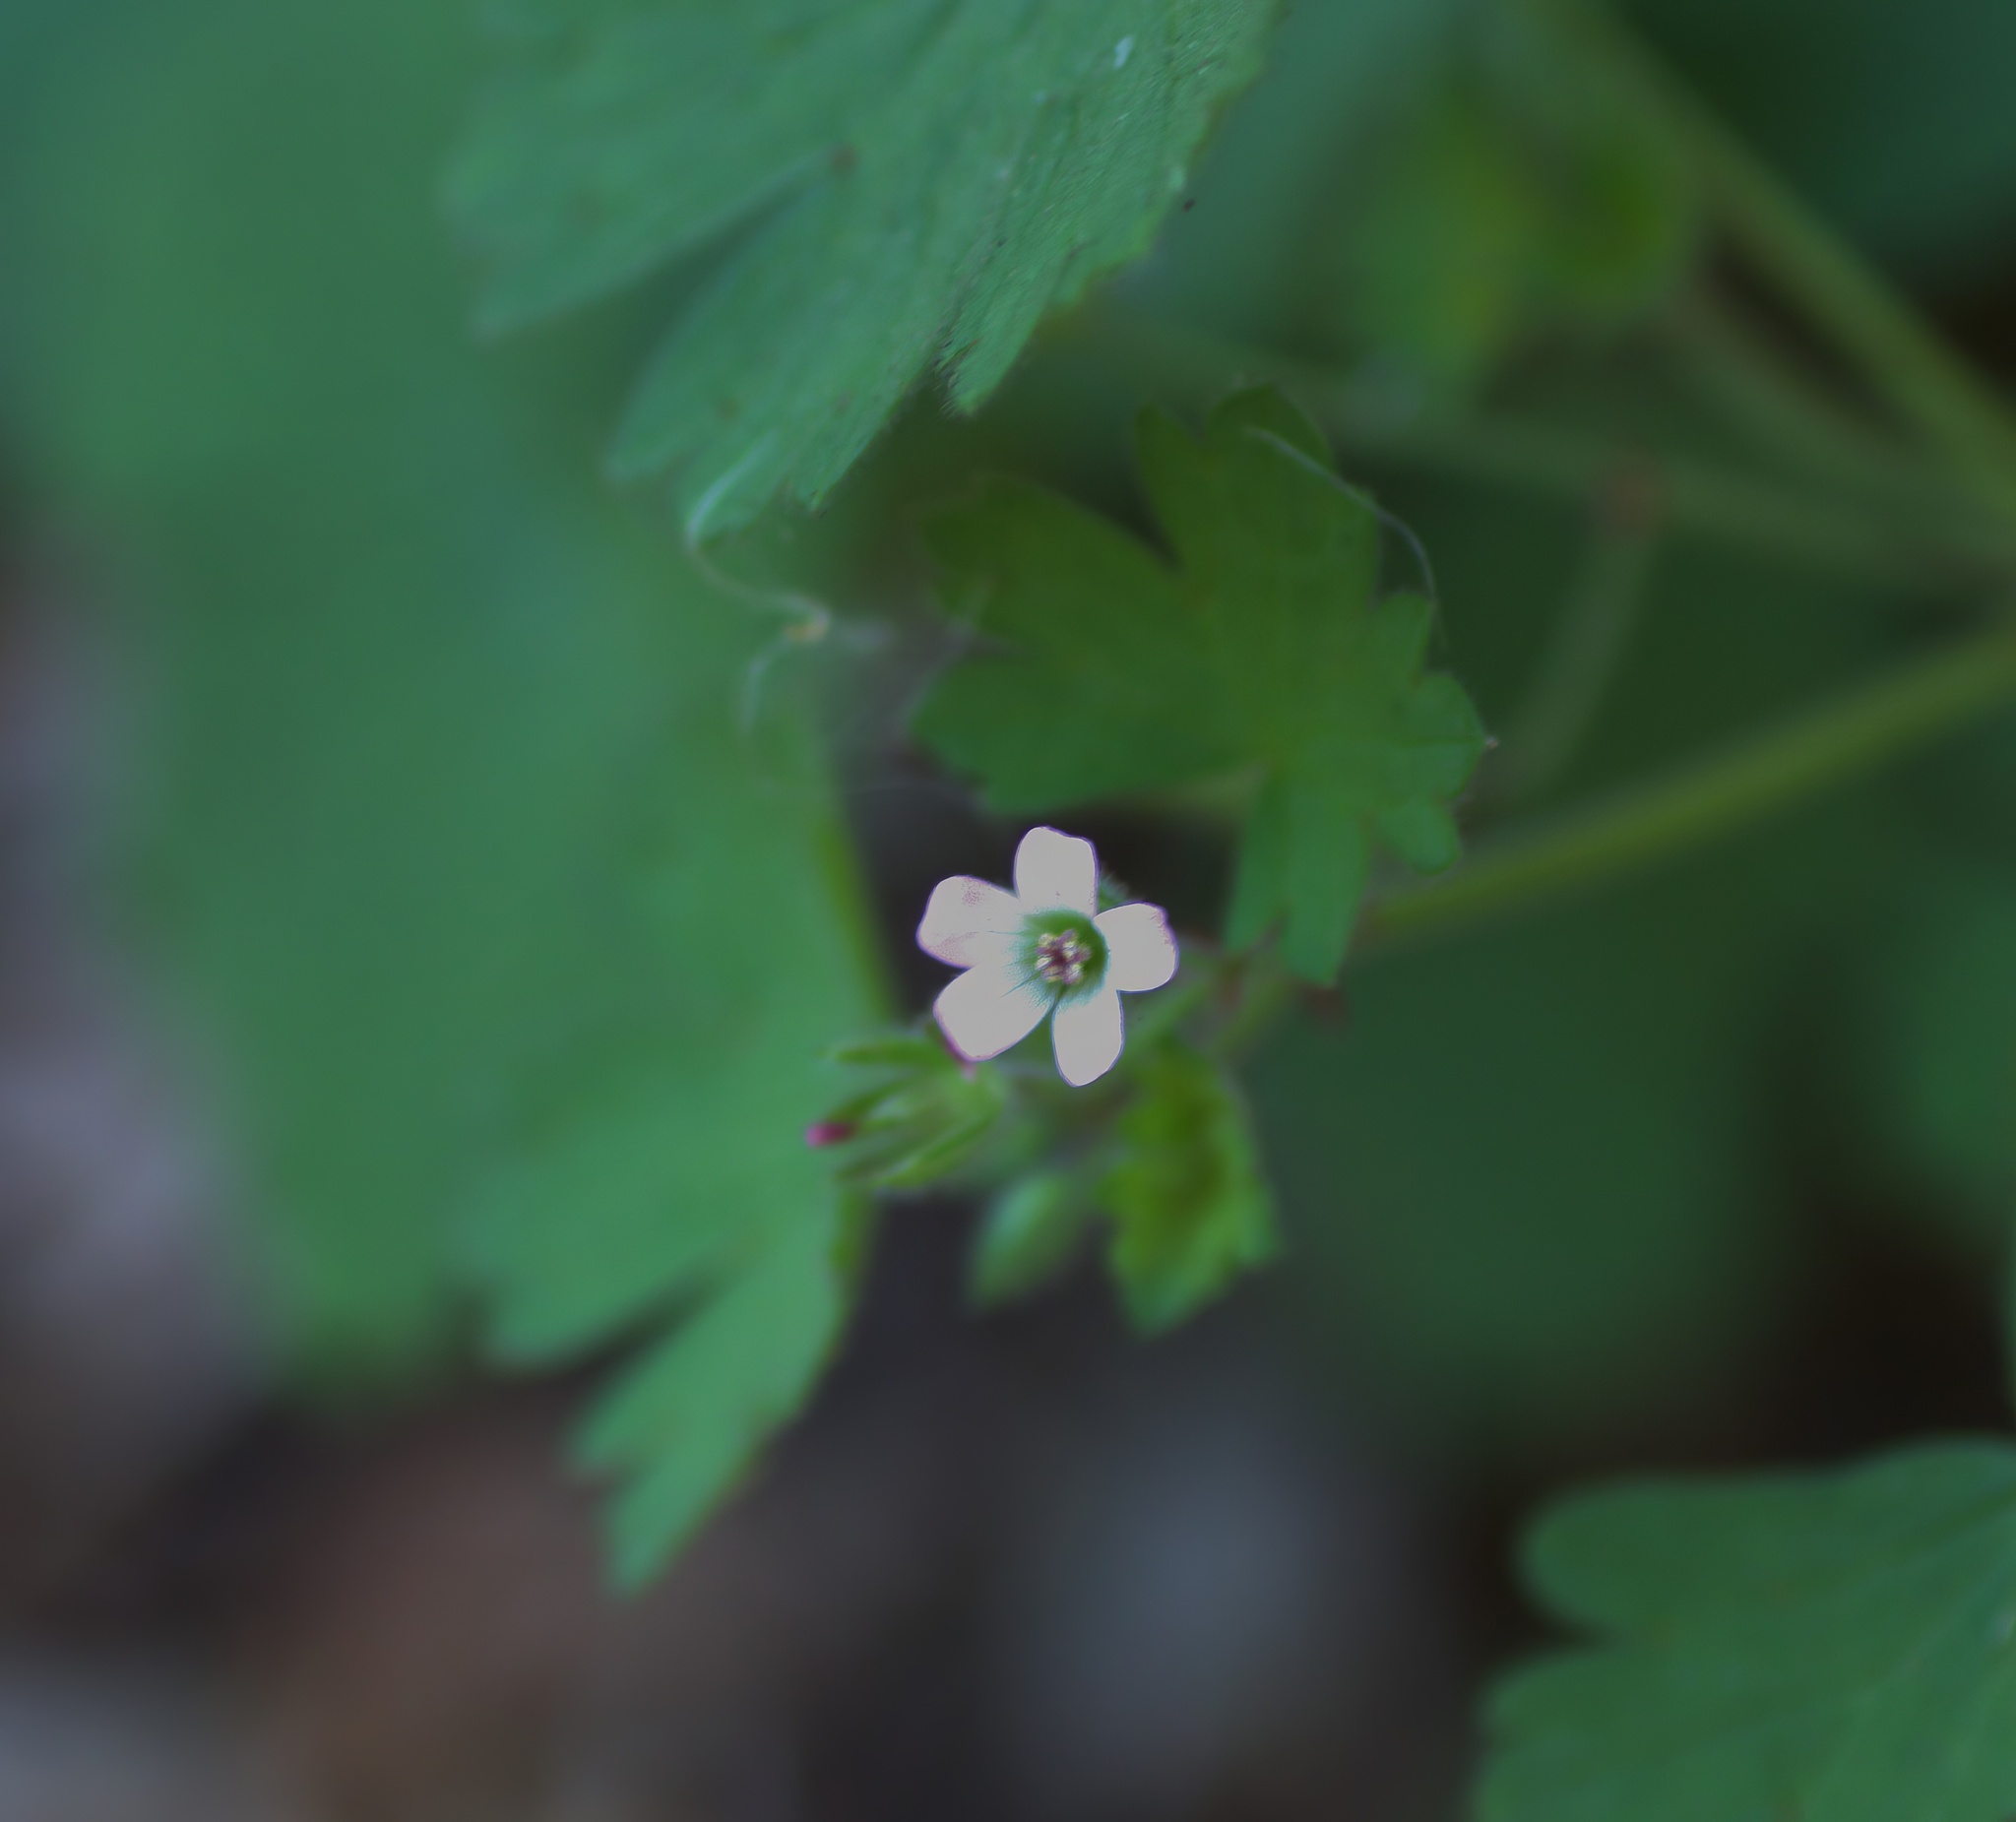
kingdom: Plantae
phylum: Tracheophyta
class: Magnoliopsida
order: Geraniales
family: Geraniaceae
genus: Geranium
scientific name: Geranium rotundifolium
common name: Round-leaved crane's-bill
